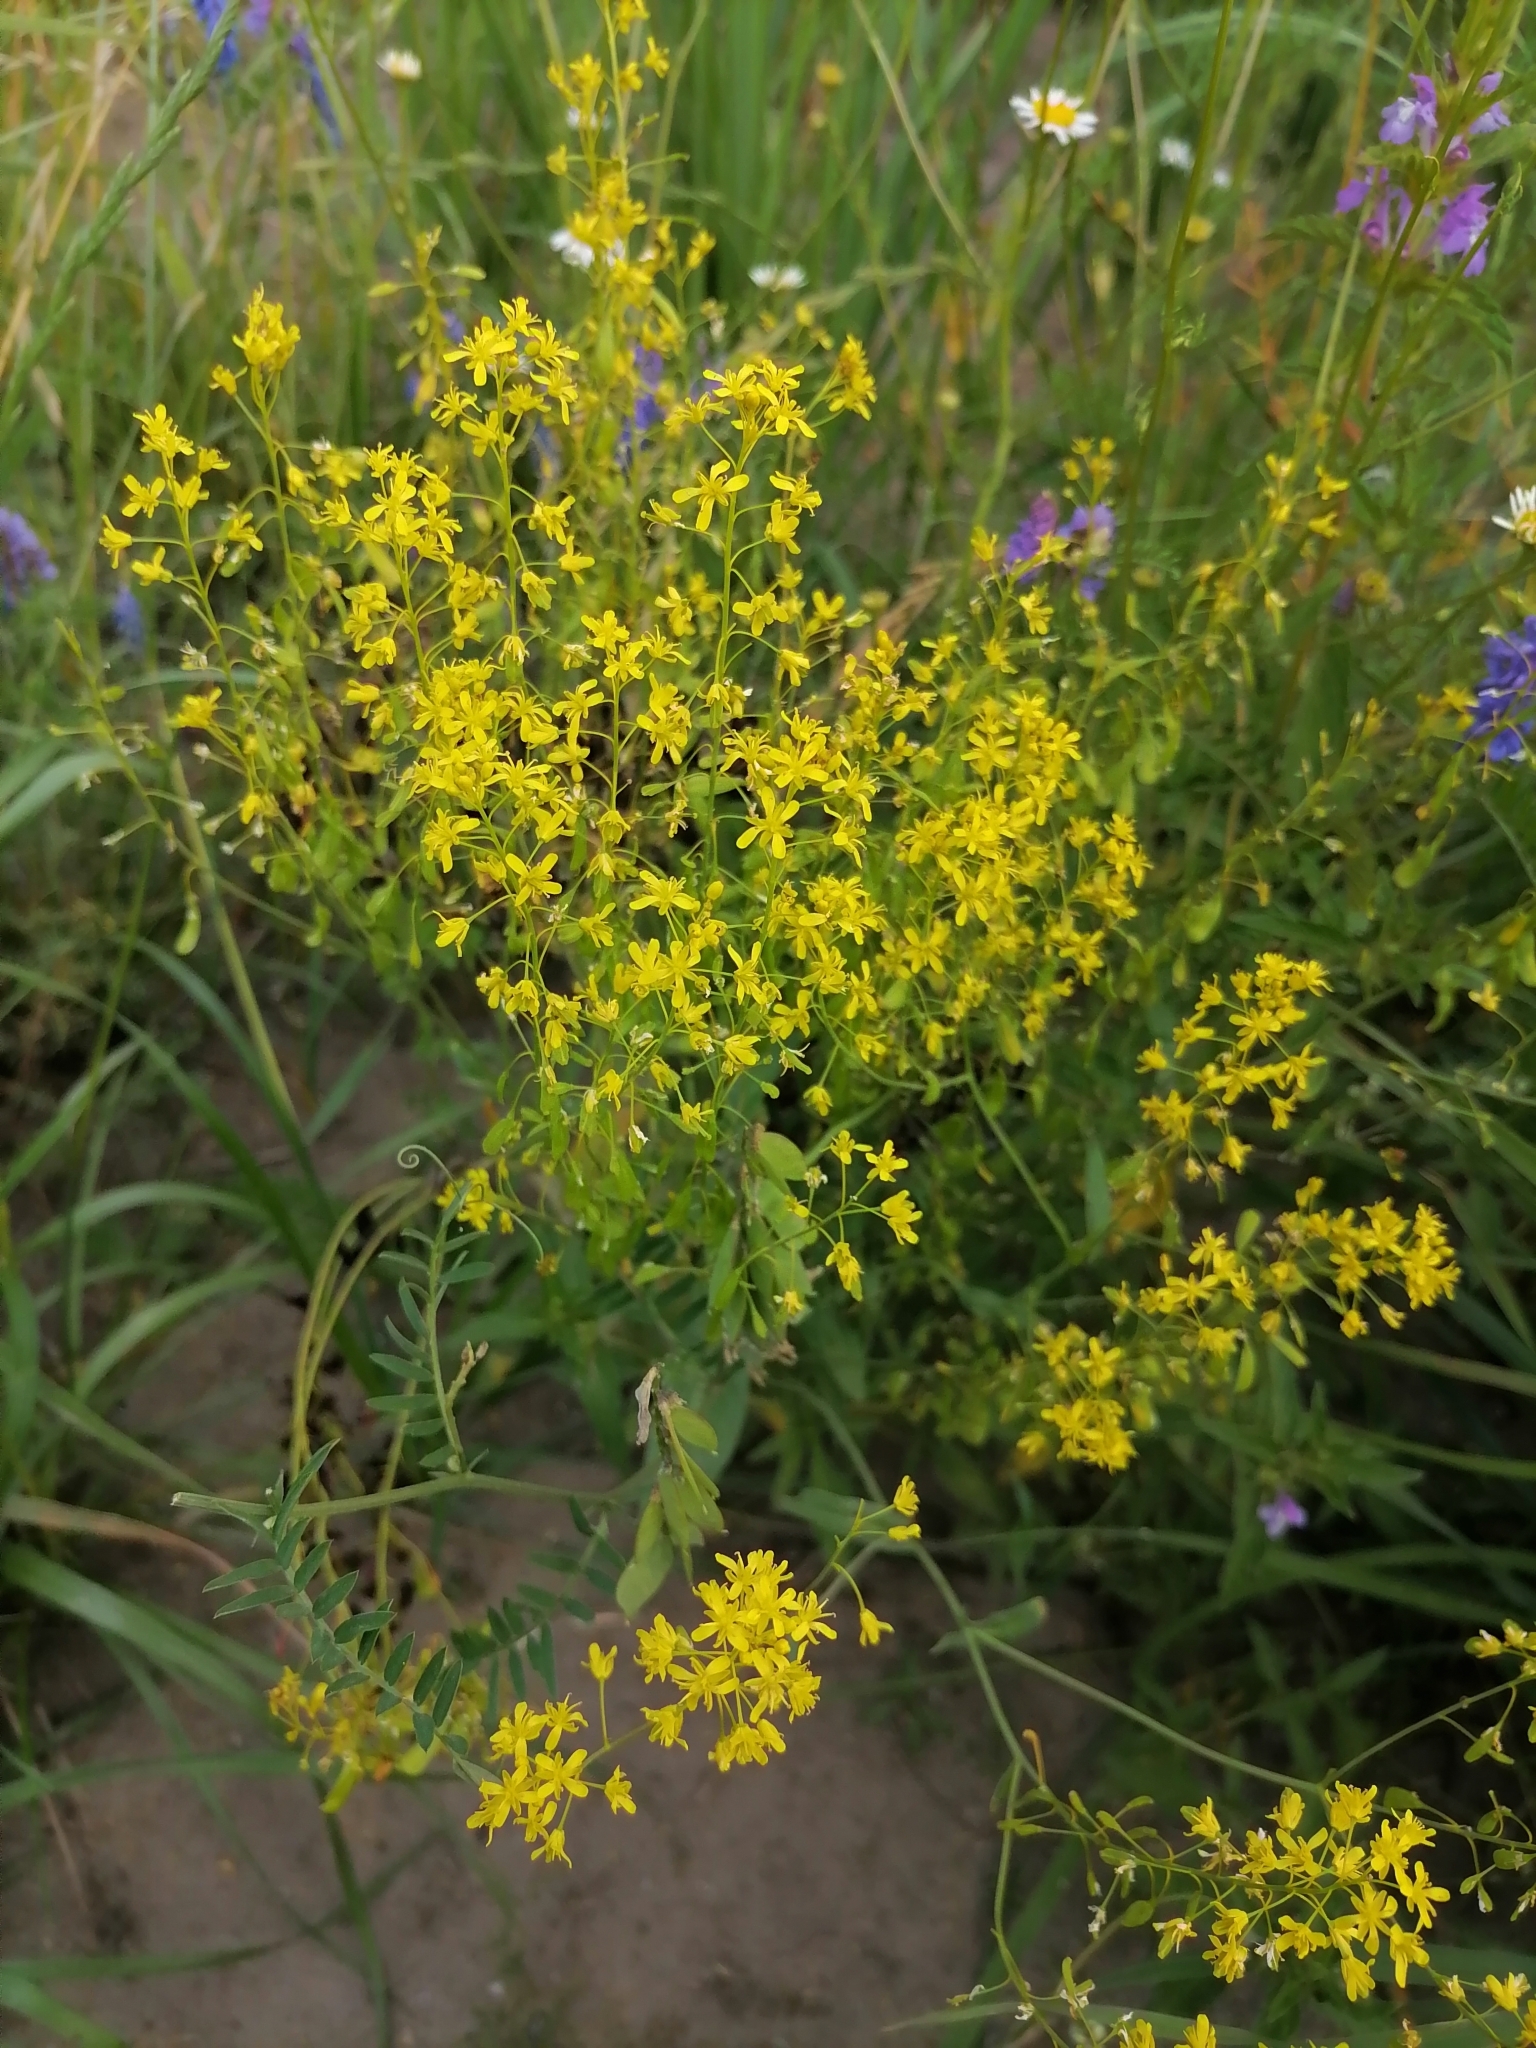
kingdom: Plantae
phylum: Tracheophyta
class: Magnoliopsida
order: Brassicales
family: Brassicaceae
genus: Isatis
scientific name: Isatis costata
